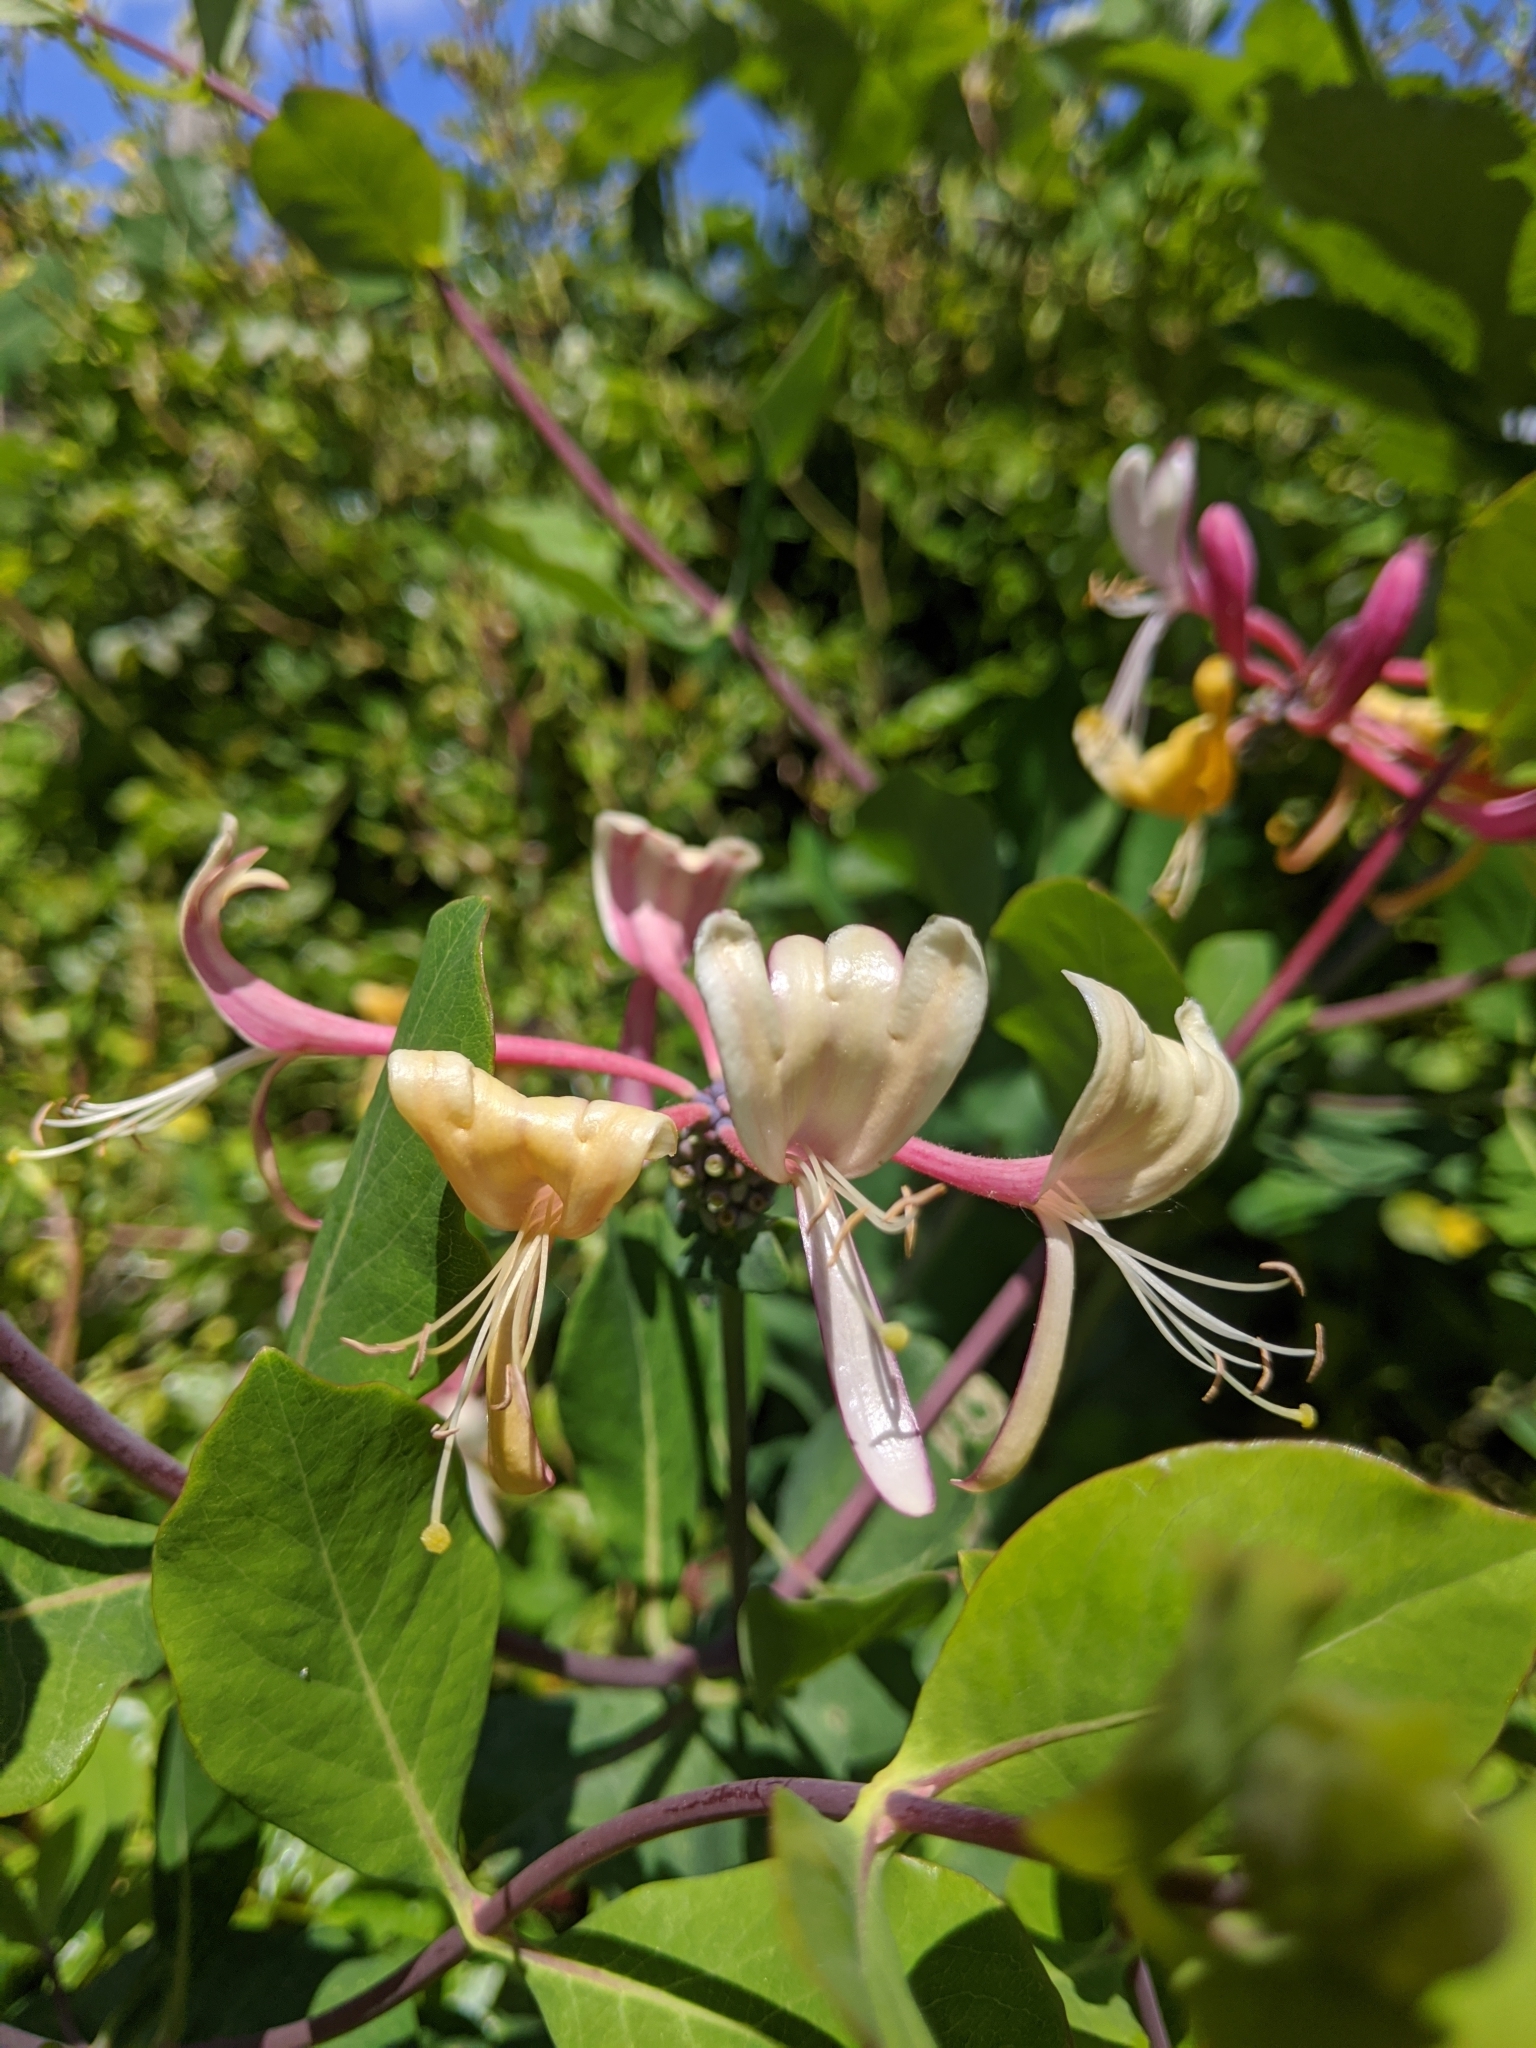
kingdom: Plantae
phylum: Tracheophyta
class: Magnoliopsida
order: Dipsacales
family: Caprifoliaceae
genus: Lonicera
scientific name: Lonicera periclymenum
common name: European honeysuckle
